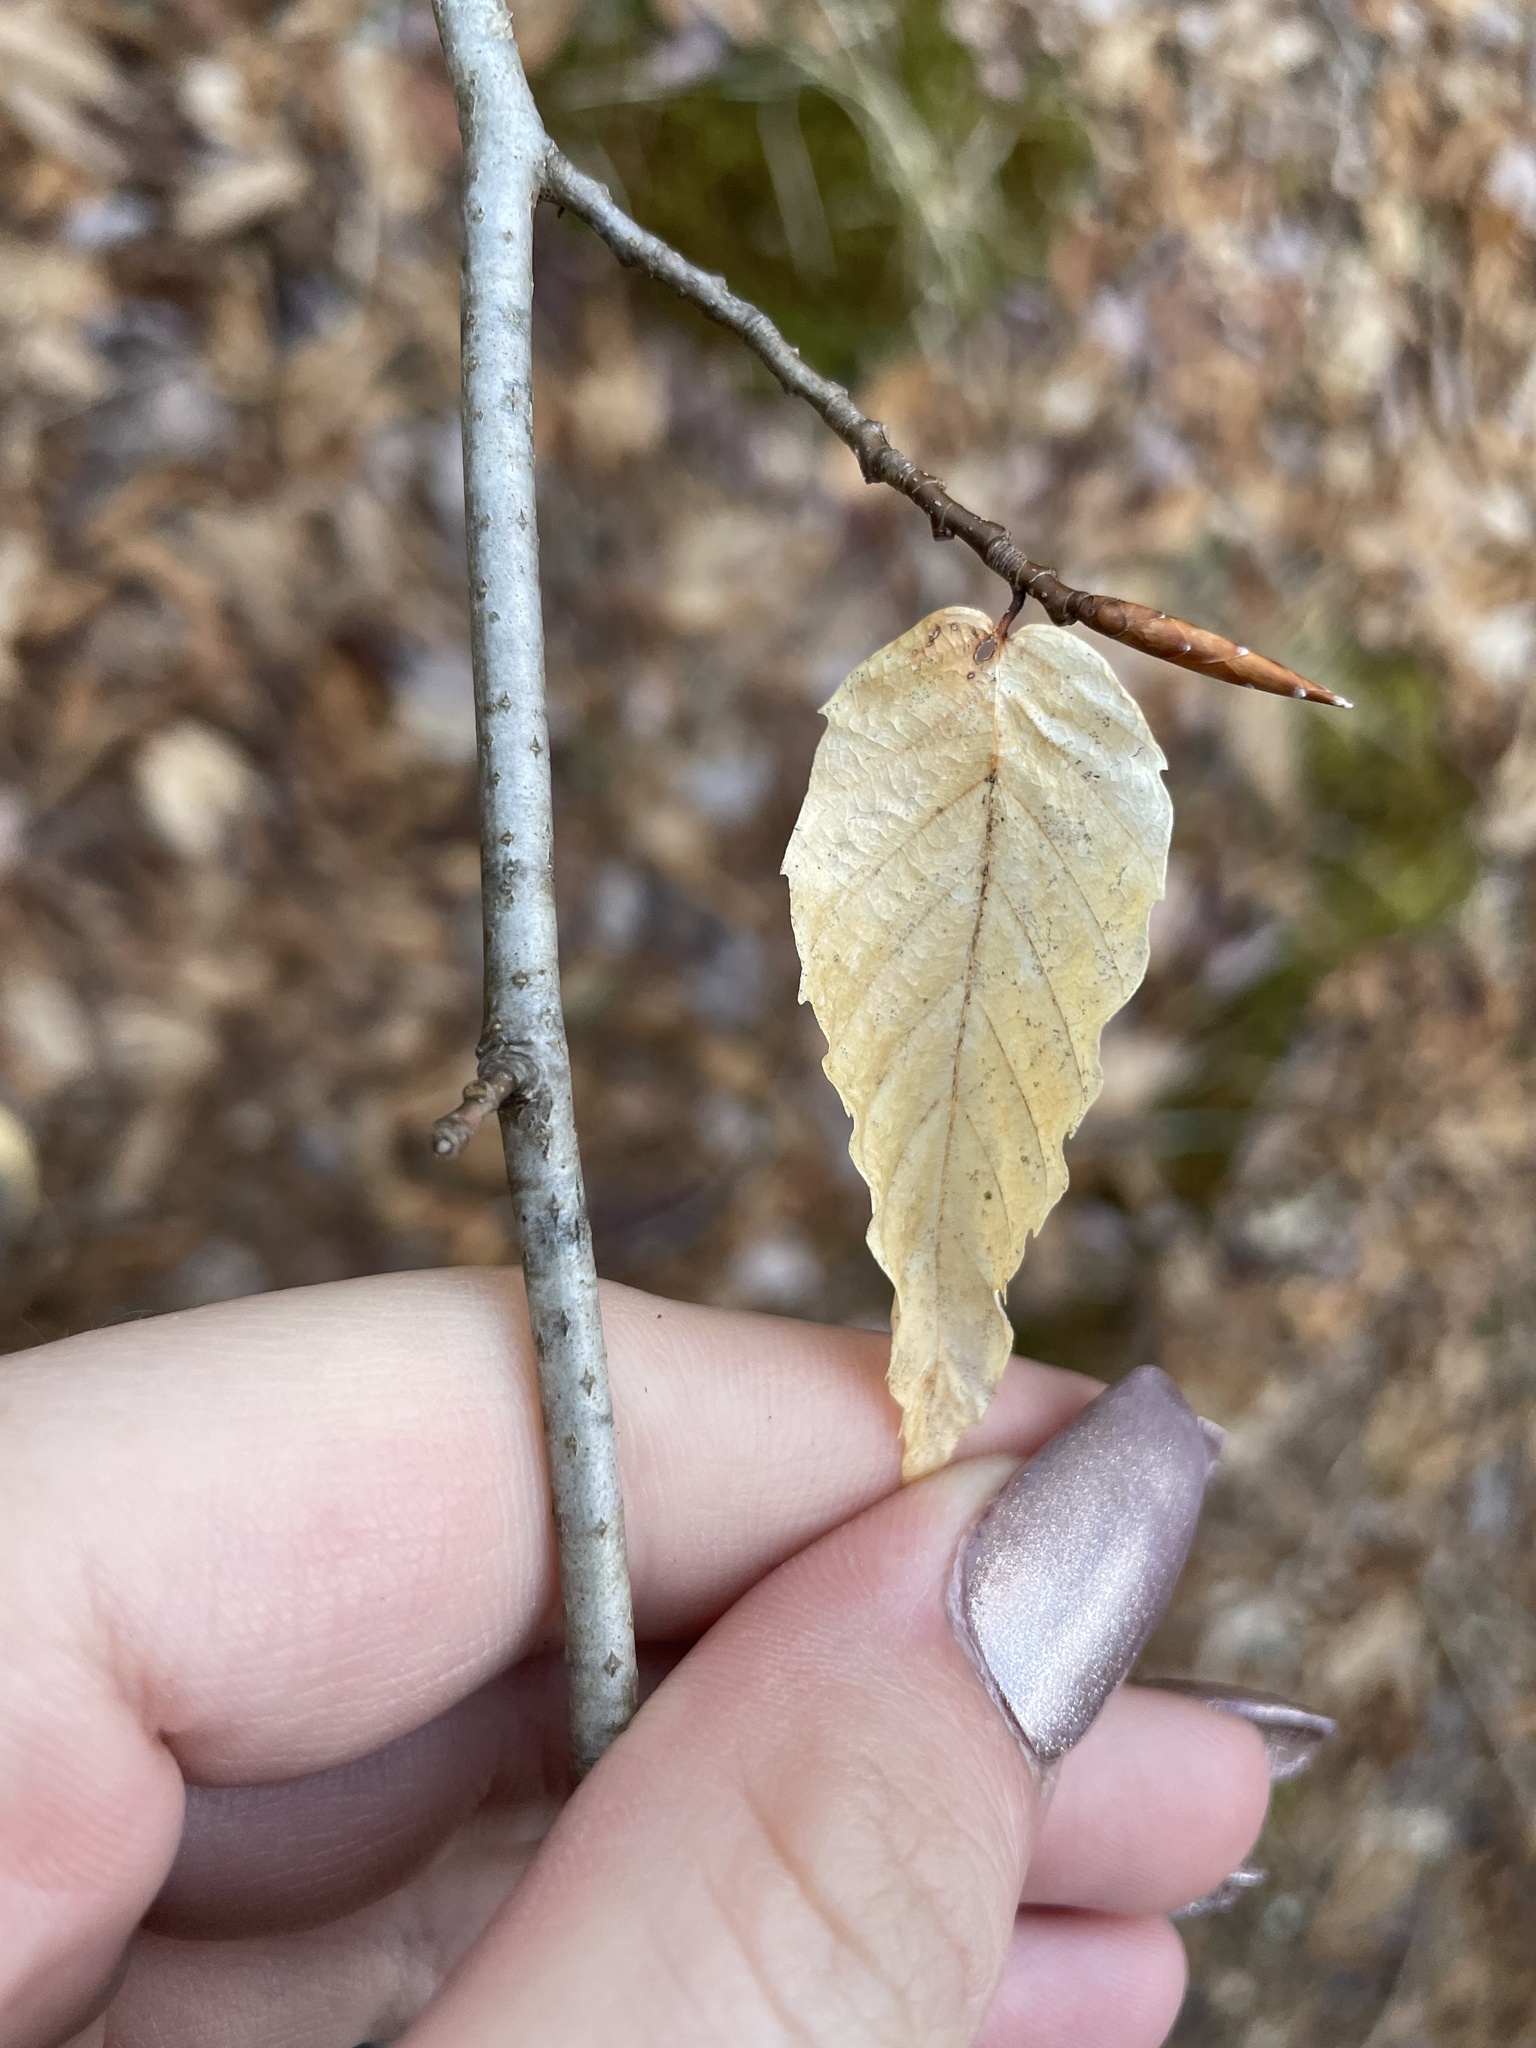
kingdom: Plantae
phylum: Tracheophyta
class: Magnoliopsida
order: Fagales
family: Fagaceae
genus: Fagus
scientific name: Fagus grandifolia
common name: American beech
